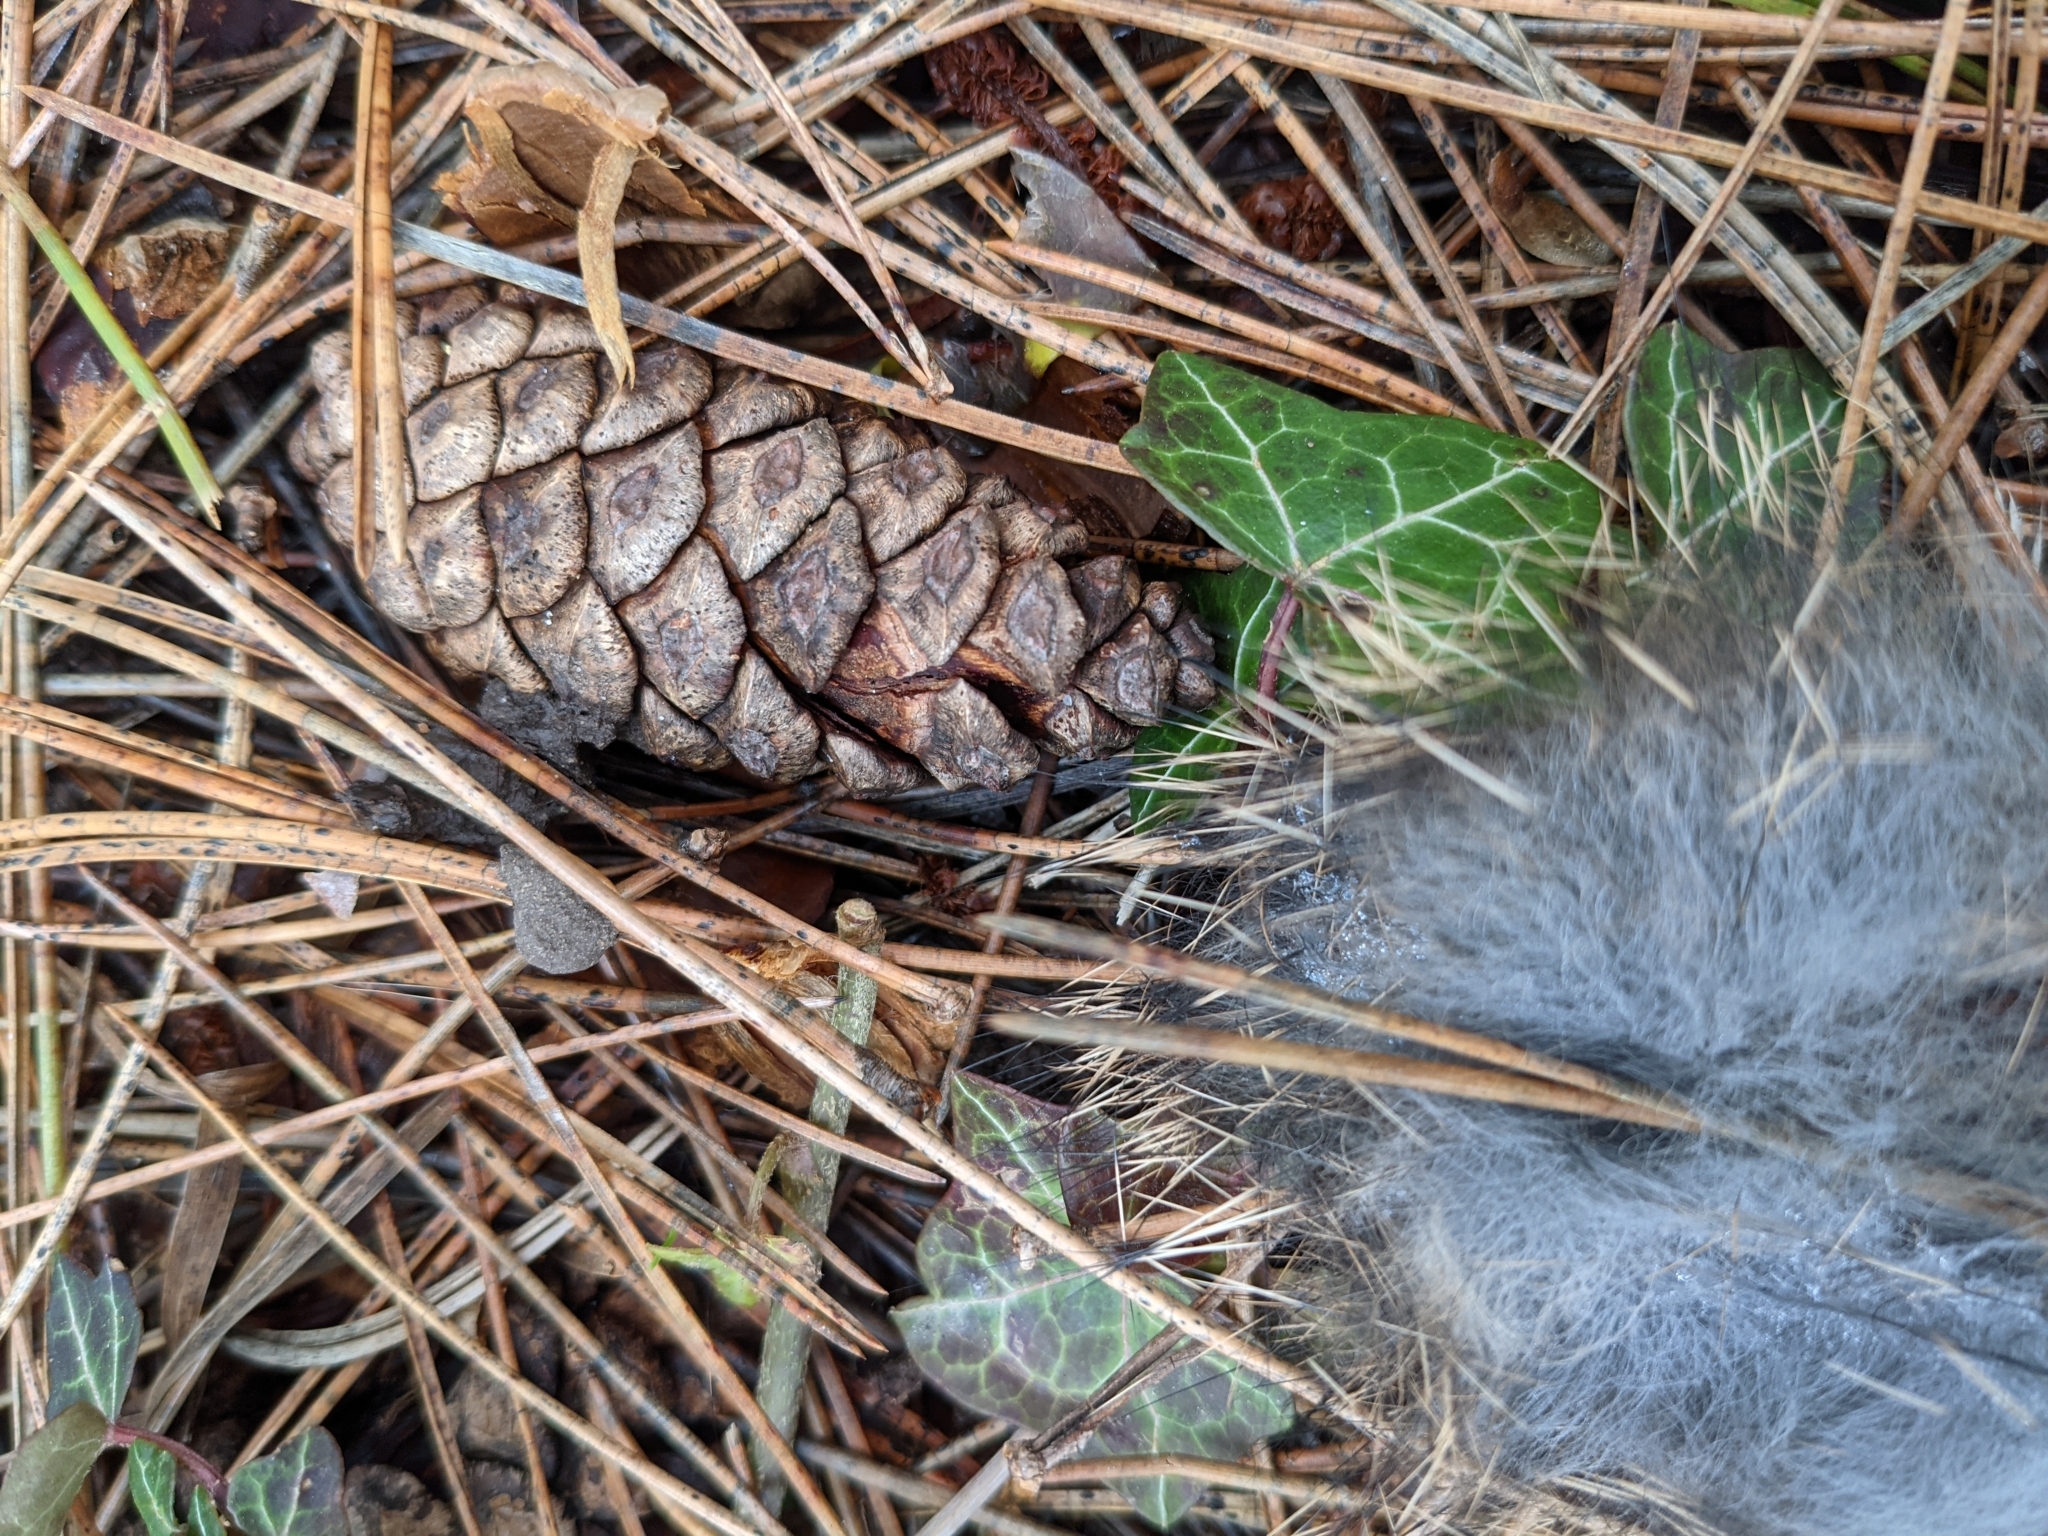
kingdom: Animalia
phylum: Chordata
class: Mammalia
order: Lagomorpha
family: Leporidae
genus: Sylvilagus
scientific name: Sylvilagus floridanus
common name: Eastern cottontail
